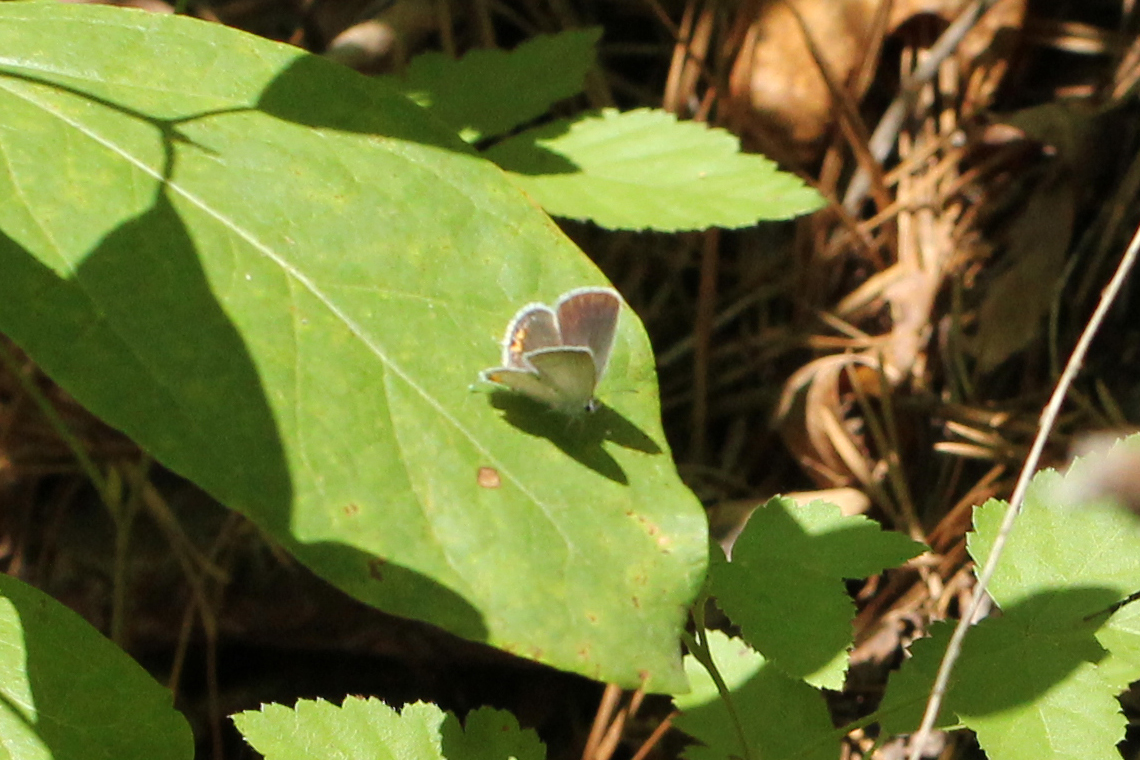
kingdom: Animalia
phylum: Arthropoda
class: Insecta
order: Lepidoptera
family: Lycaenidae
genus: Elkalyce
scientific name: Elkalyce comyntas
